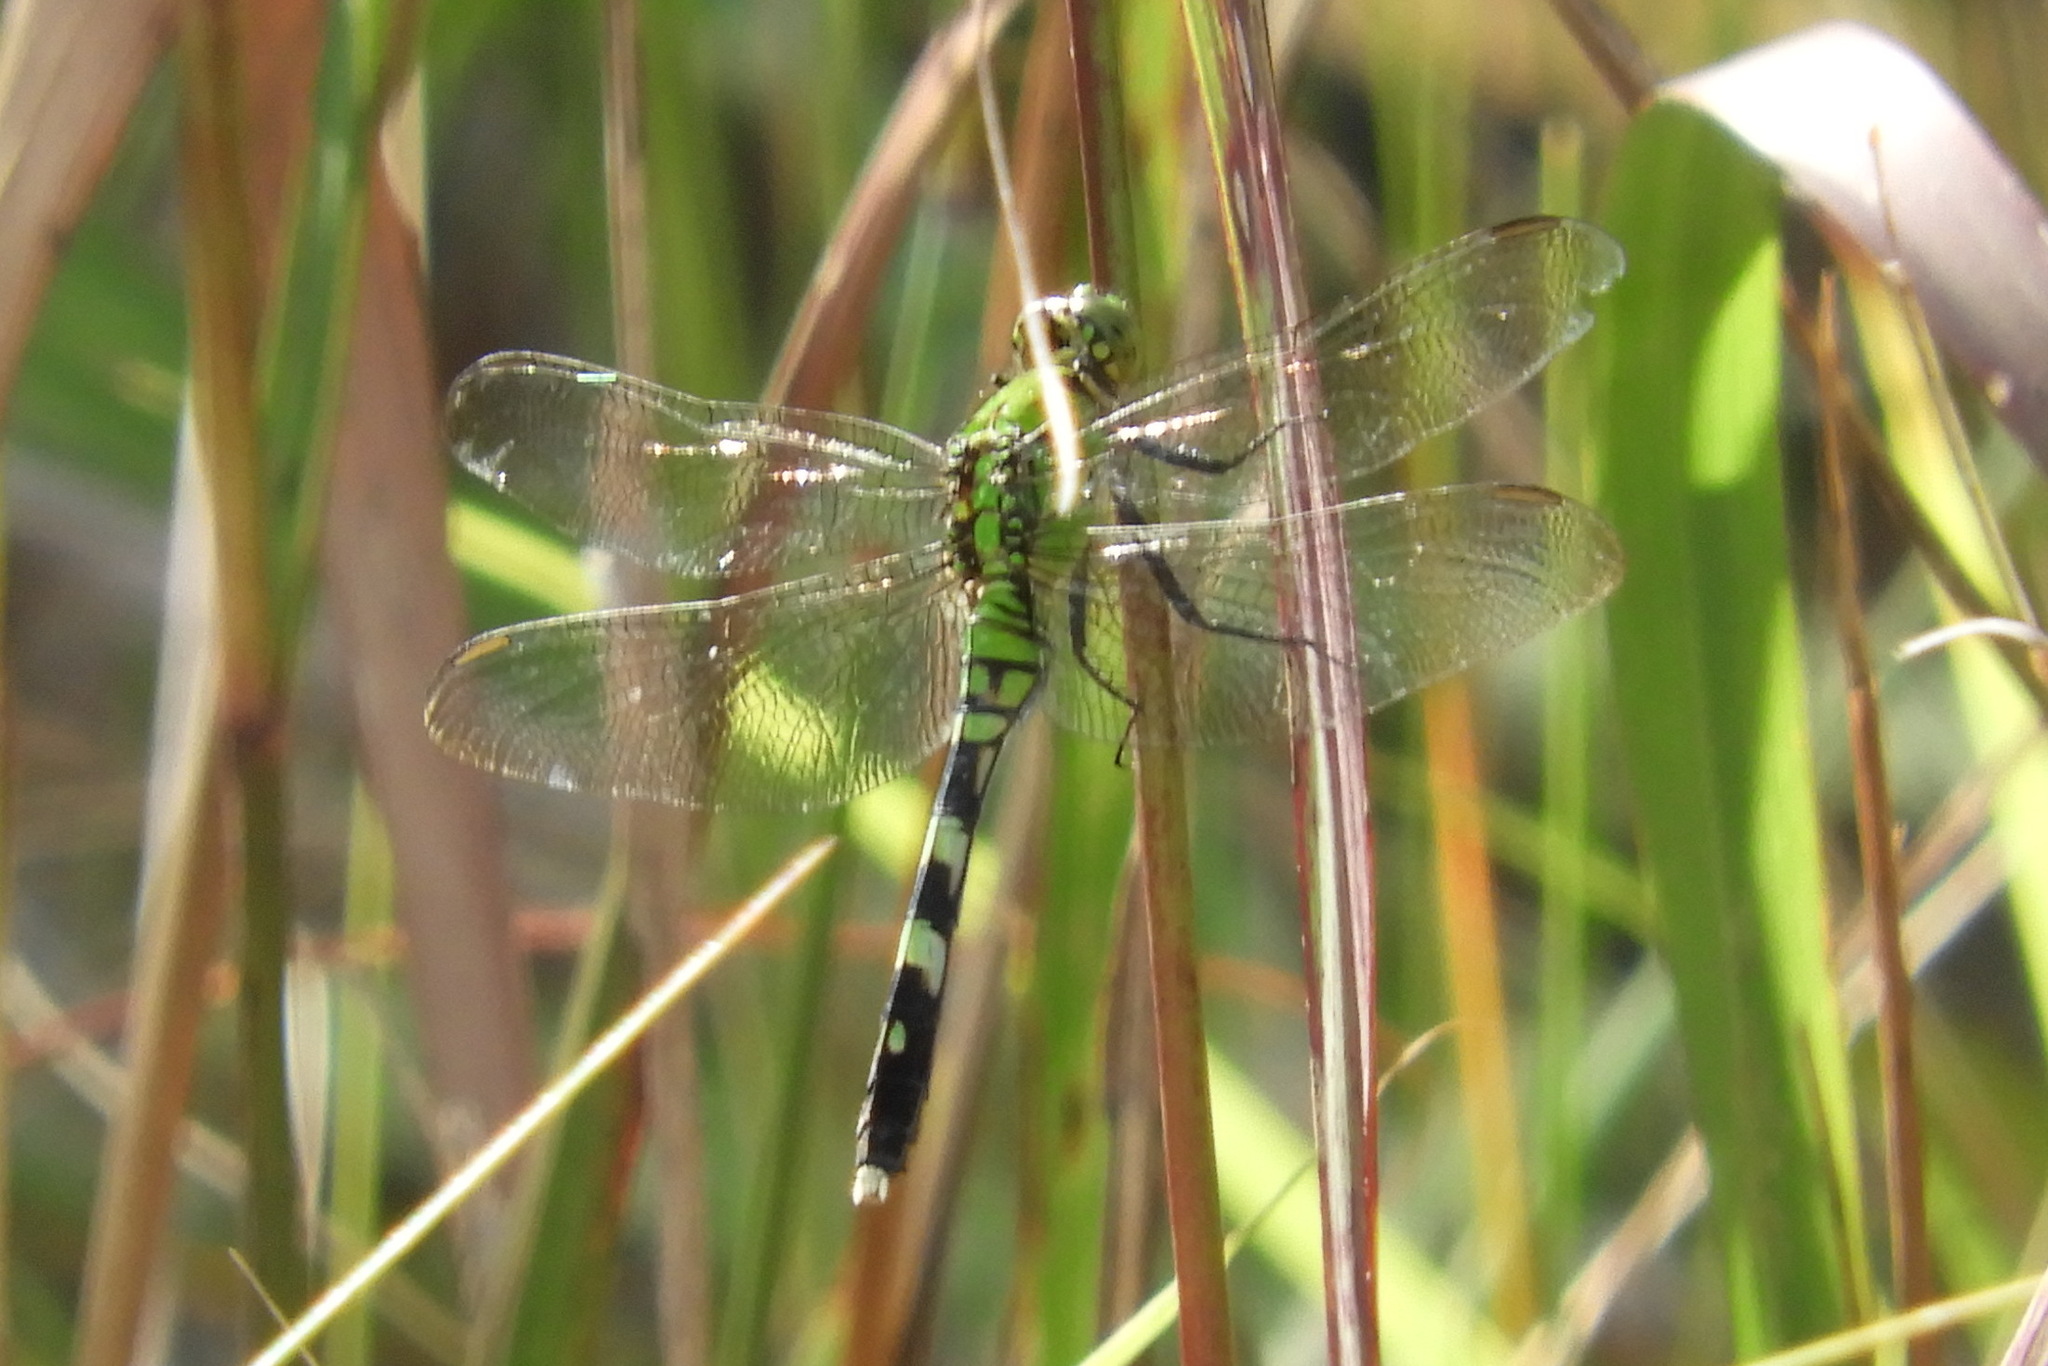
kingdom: Animalia
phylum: Arthropoda
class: Insecta
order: Odonata
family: Libellulidae
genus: Erythemis
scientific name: Erythemis simplicicollis
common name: Eastern pondhawk
